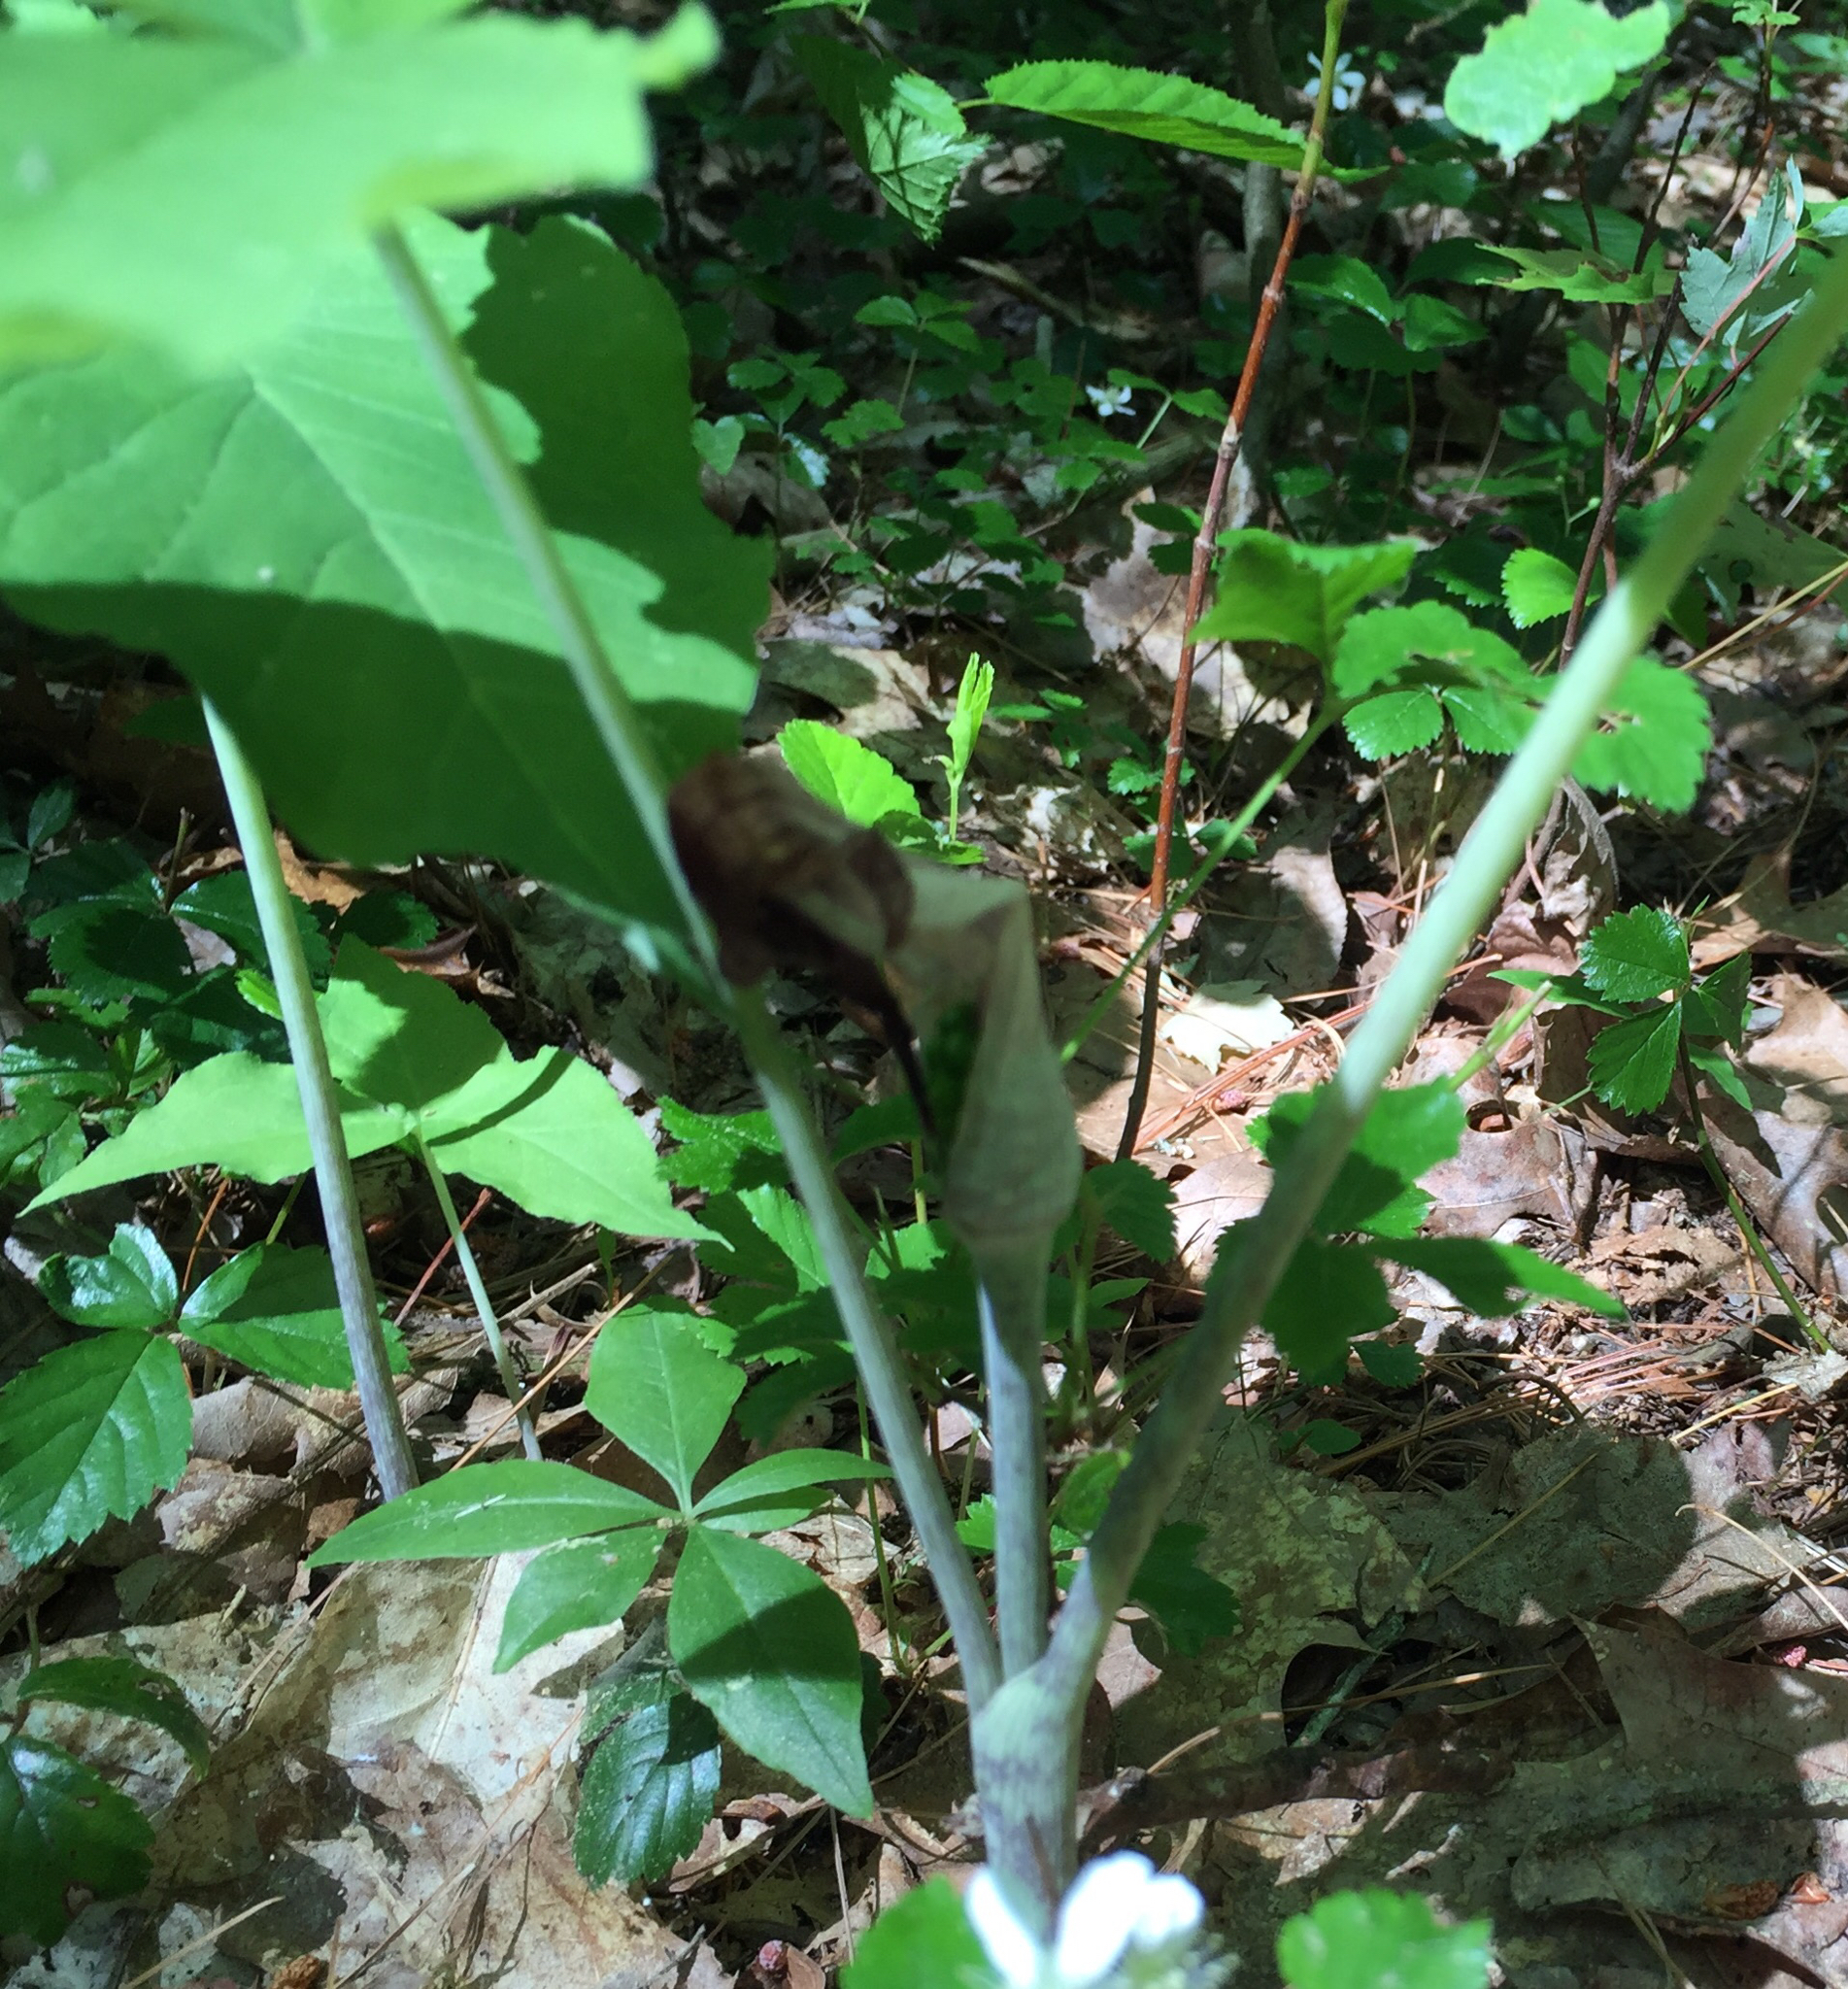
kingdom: Plantae
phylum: Tracheophyta
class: Liliopsida
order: Alismatales
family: Araceae
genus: Arisaema
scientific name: Arisaema triphyllum
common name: Jack-in-the-pulpit
